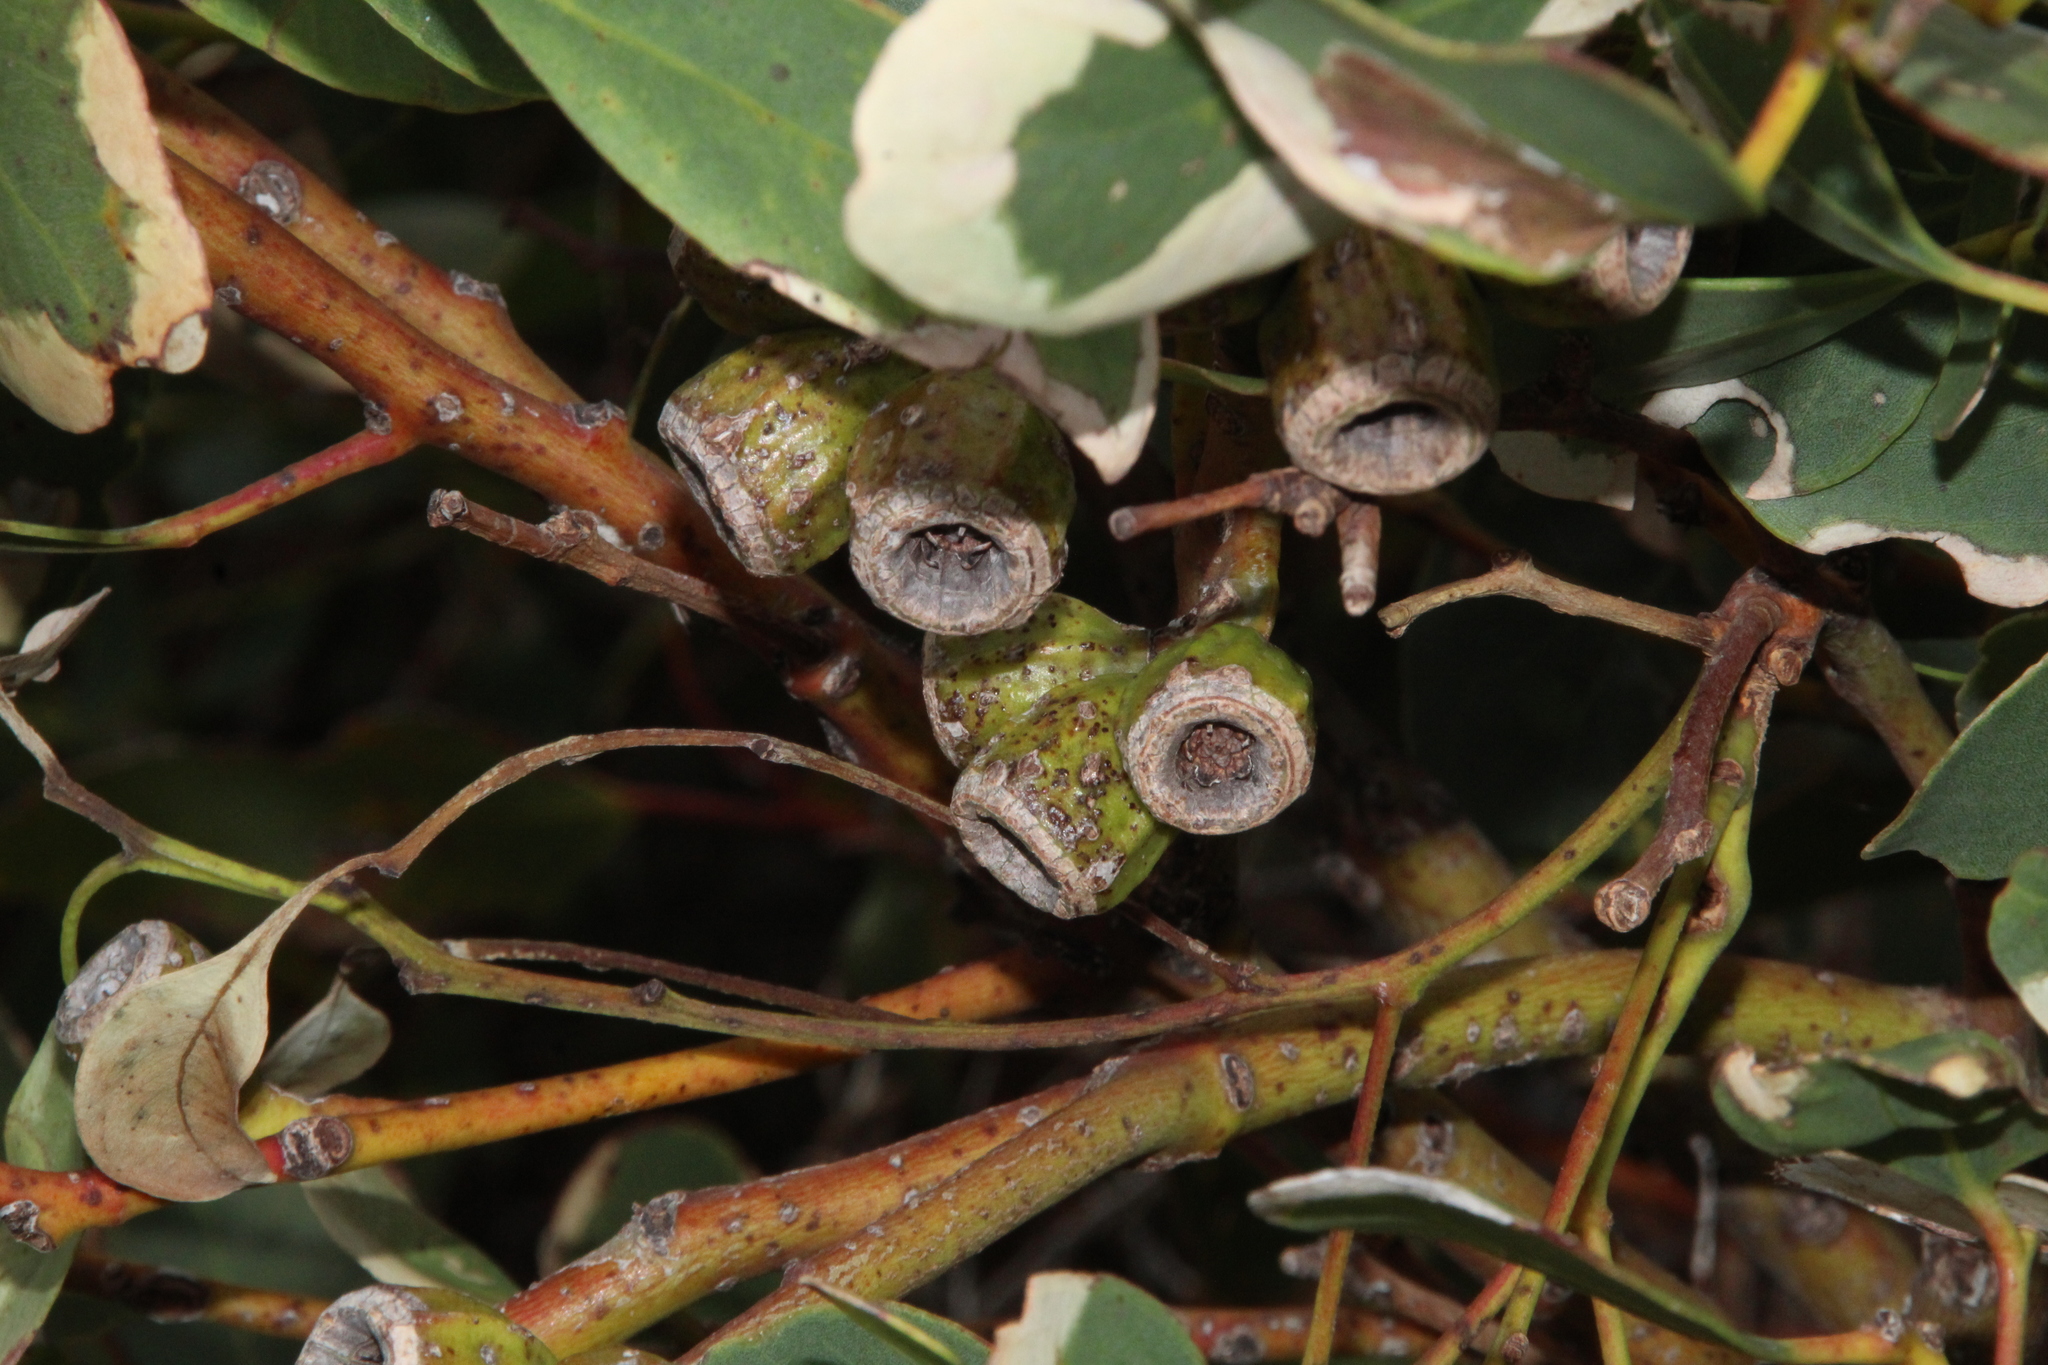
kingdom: Plantae
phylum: Tracheophyta
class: Magnoliopsida
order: Myrtales
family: Myrtaceae
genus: Eucalyptus
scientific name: Eucalyptus angulosa
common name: Ridge-fruited mallee
